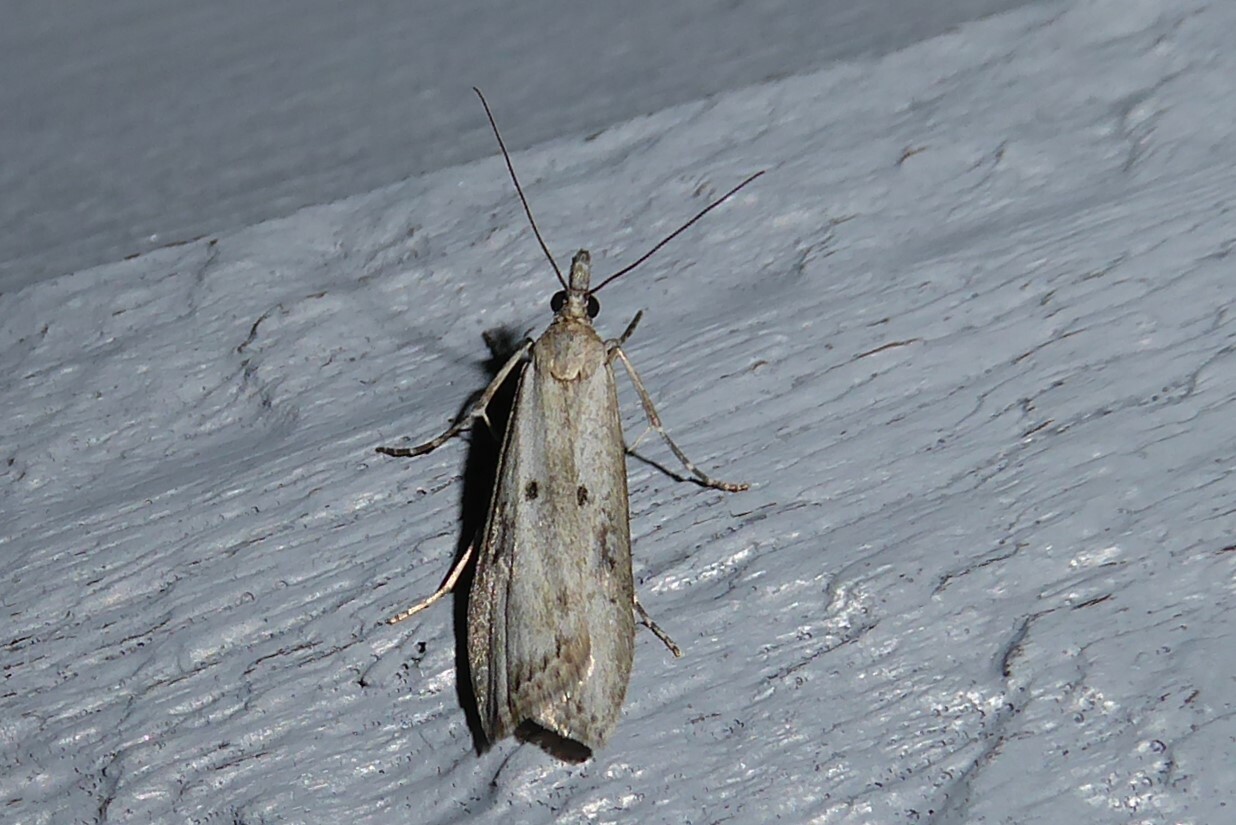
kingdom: Animalia
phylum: Arthropoda
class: Insecta
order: Lepidoptera
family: Crambidae
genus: Eudonia
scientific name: Eudonia leptalea
